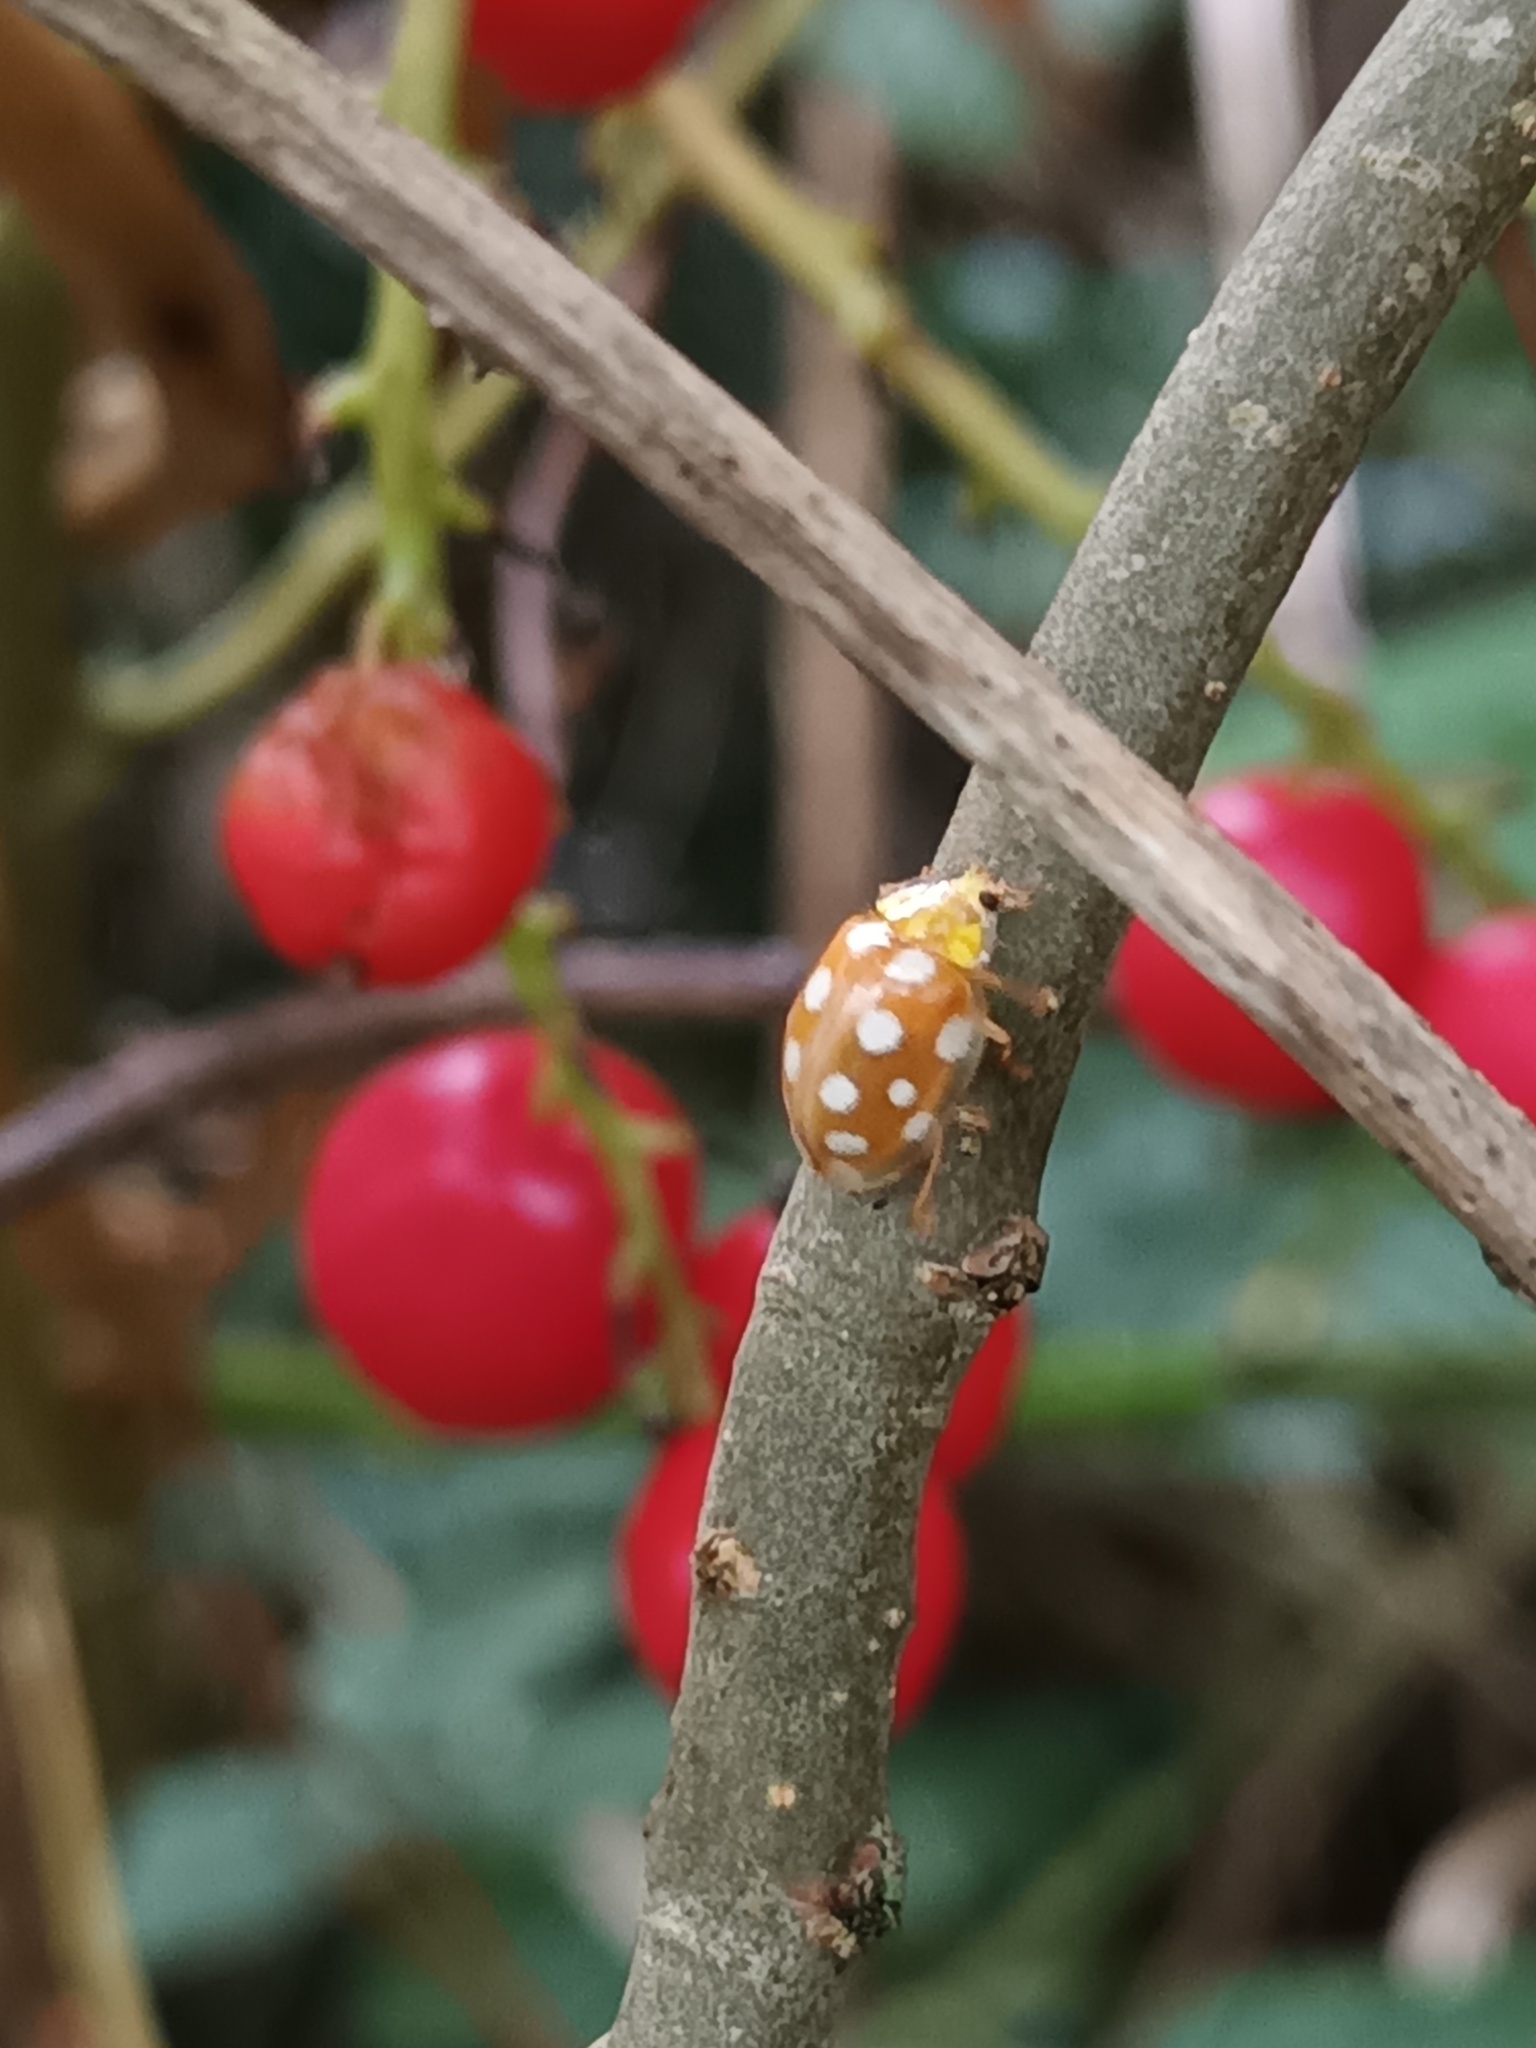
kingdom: Animalia
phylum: Arthropoda
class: Insecta
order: Coleoptera
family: Coccinellidae
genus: Halyzia
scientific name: Halyzia sedecimguttata
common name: Orange ladybird
